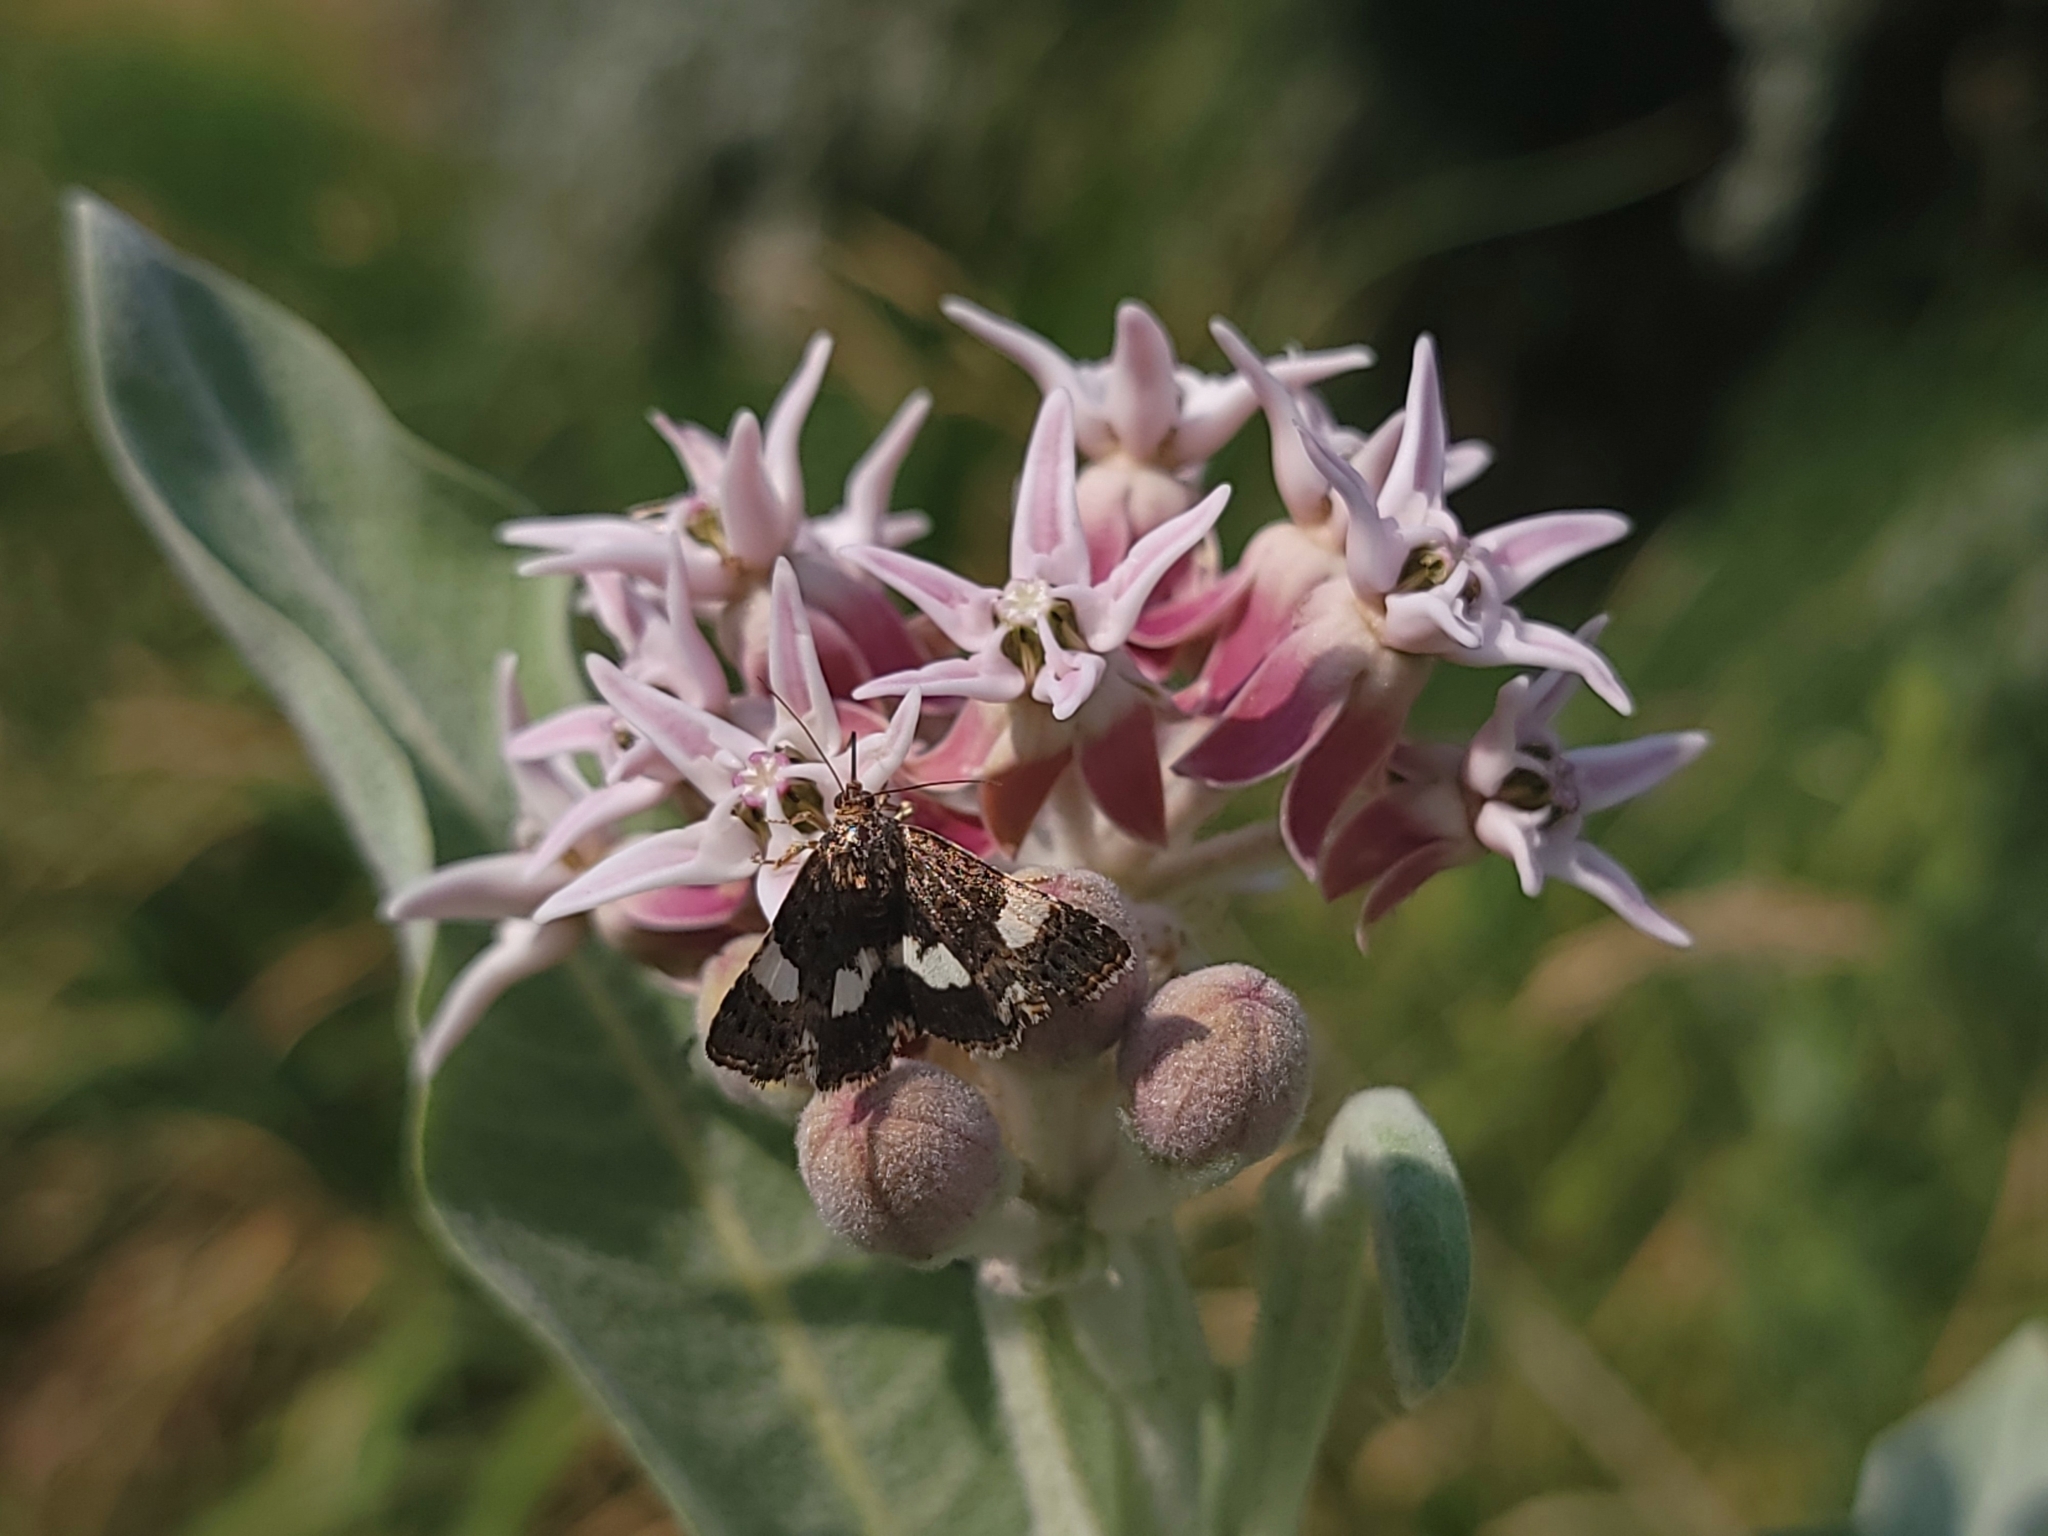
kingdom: Animalia
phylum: Arthropoda
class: Insecta
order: Lepidoptera
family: Erebidae
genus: Tyta
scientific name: Tyta luctuosa
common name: Four-spotted
